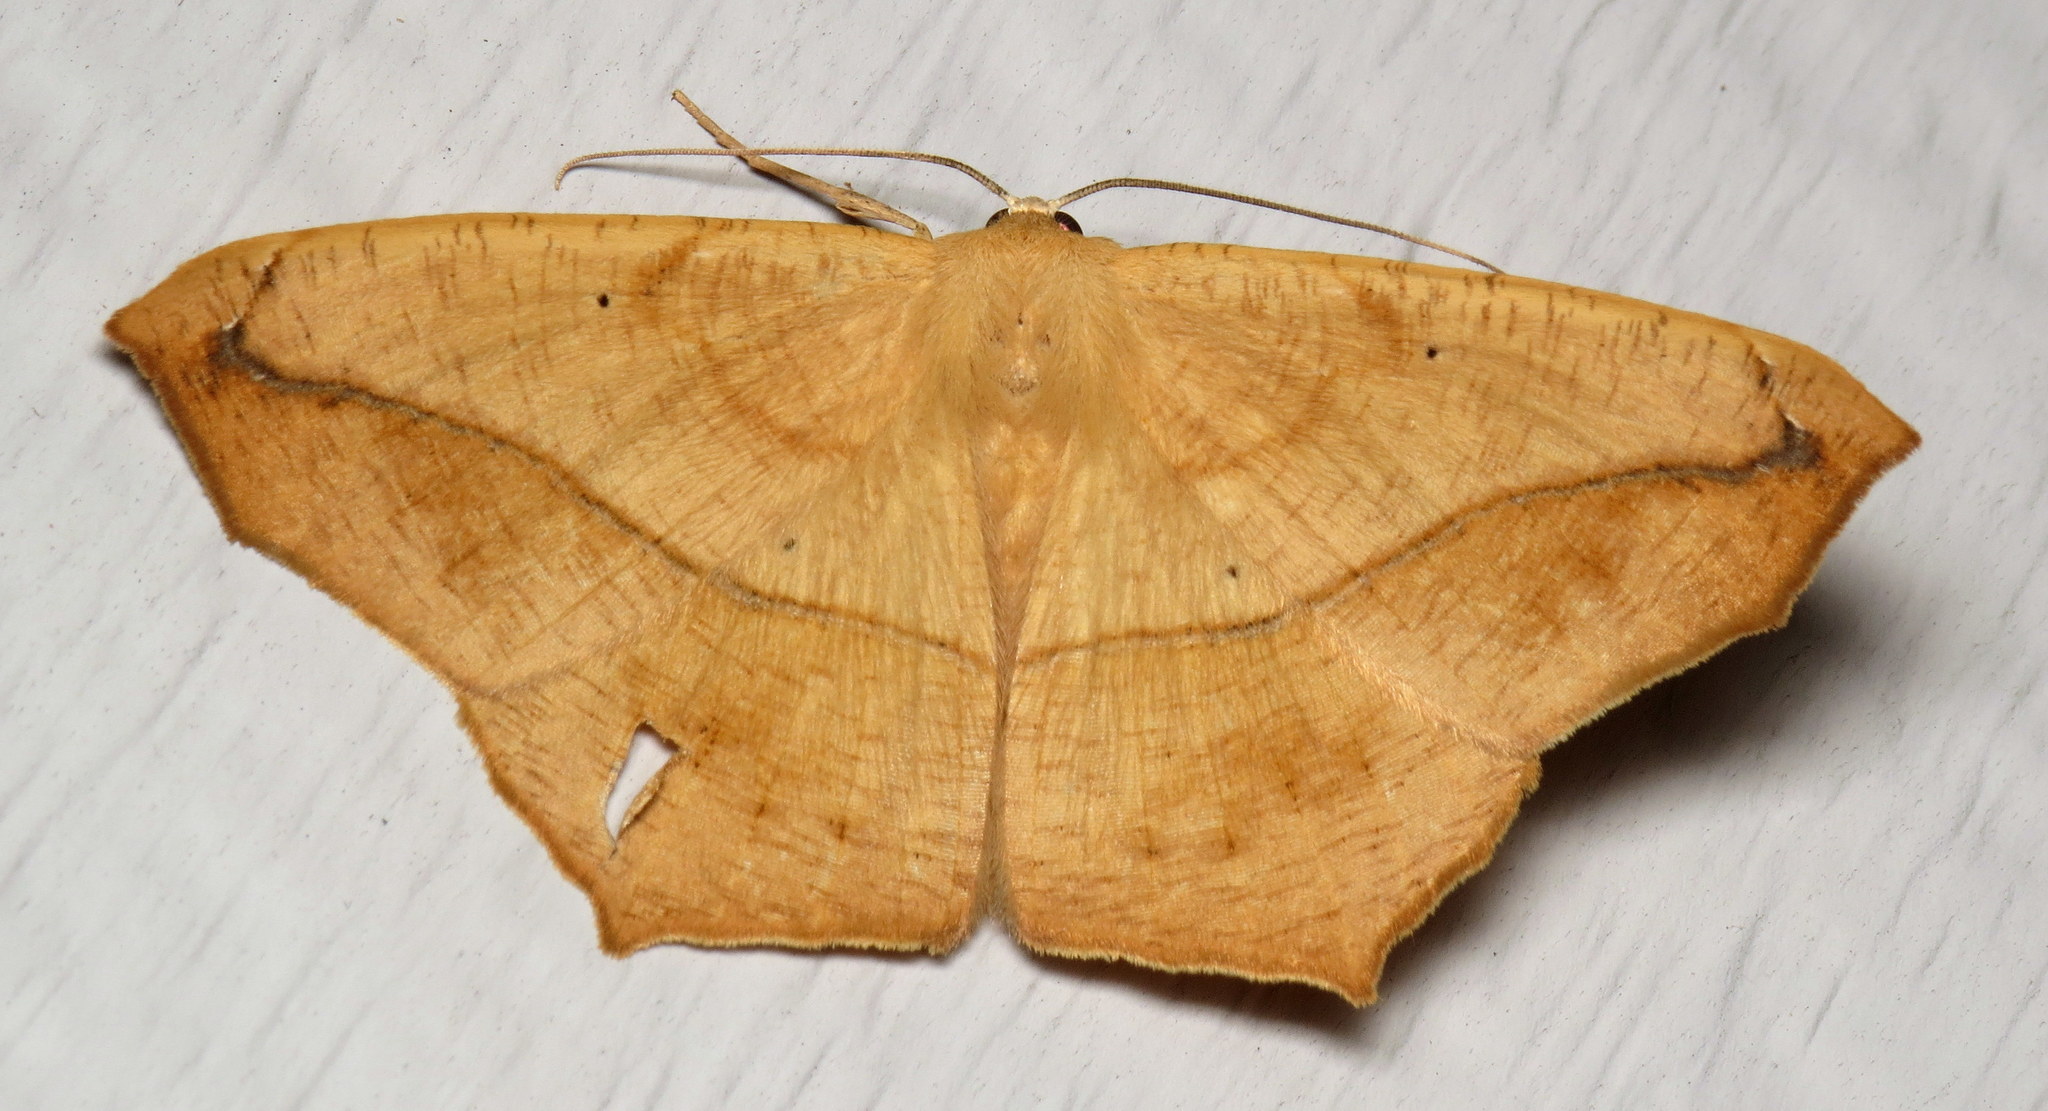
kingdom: Animalia
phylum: Arthropoda
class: Insecta
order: Lepidoptera
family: Geometridae
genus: Prochoerodes
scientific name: Prochoerodes lineola
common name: Large maple spanworm
